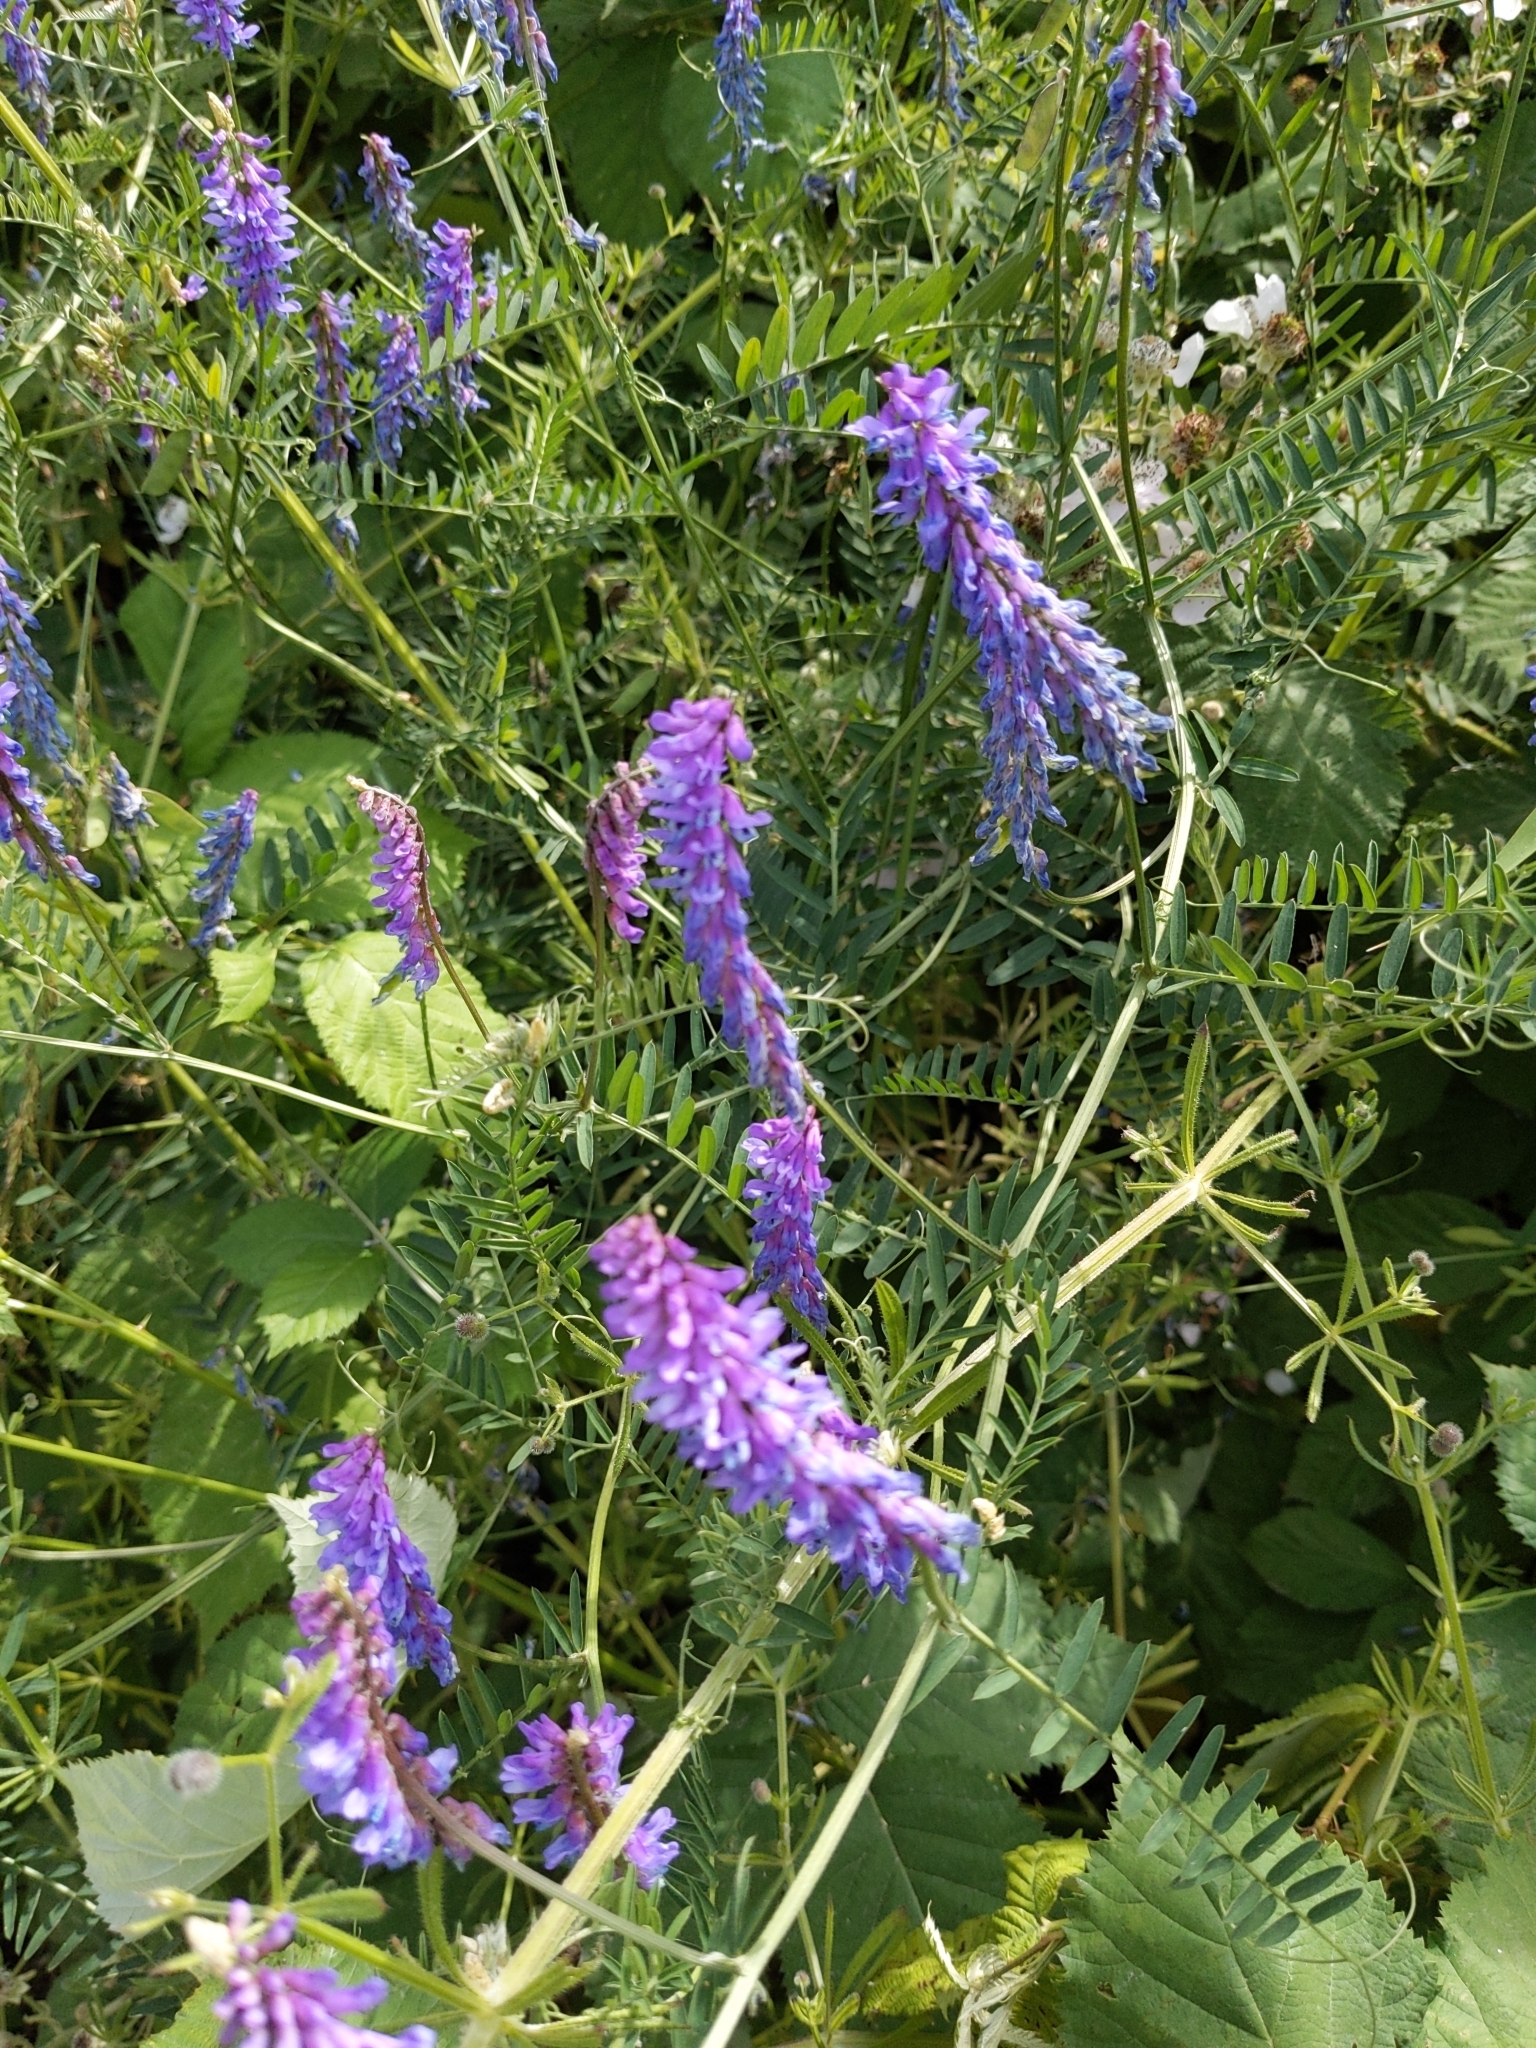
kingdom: Plantae
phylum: Tracheophyta
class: Magnoliopsida
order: Fabales
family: Fabaceae
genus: Vicia
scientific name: Vicia cracca
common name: Bird vetch
